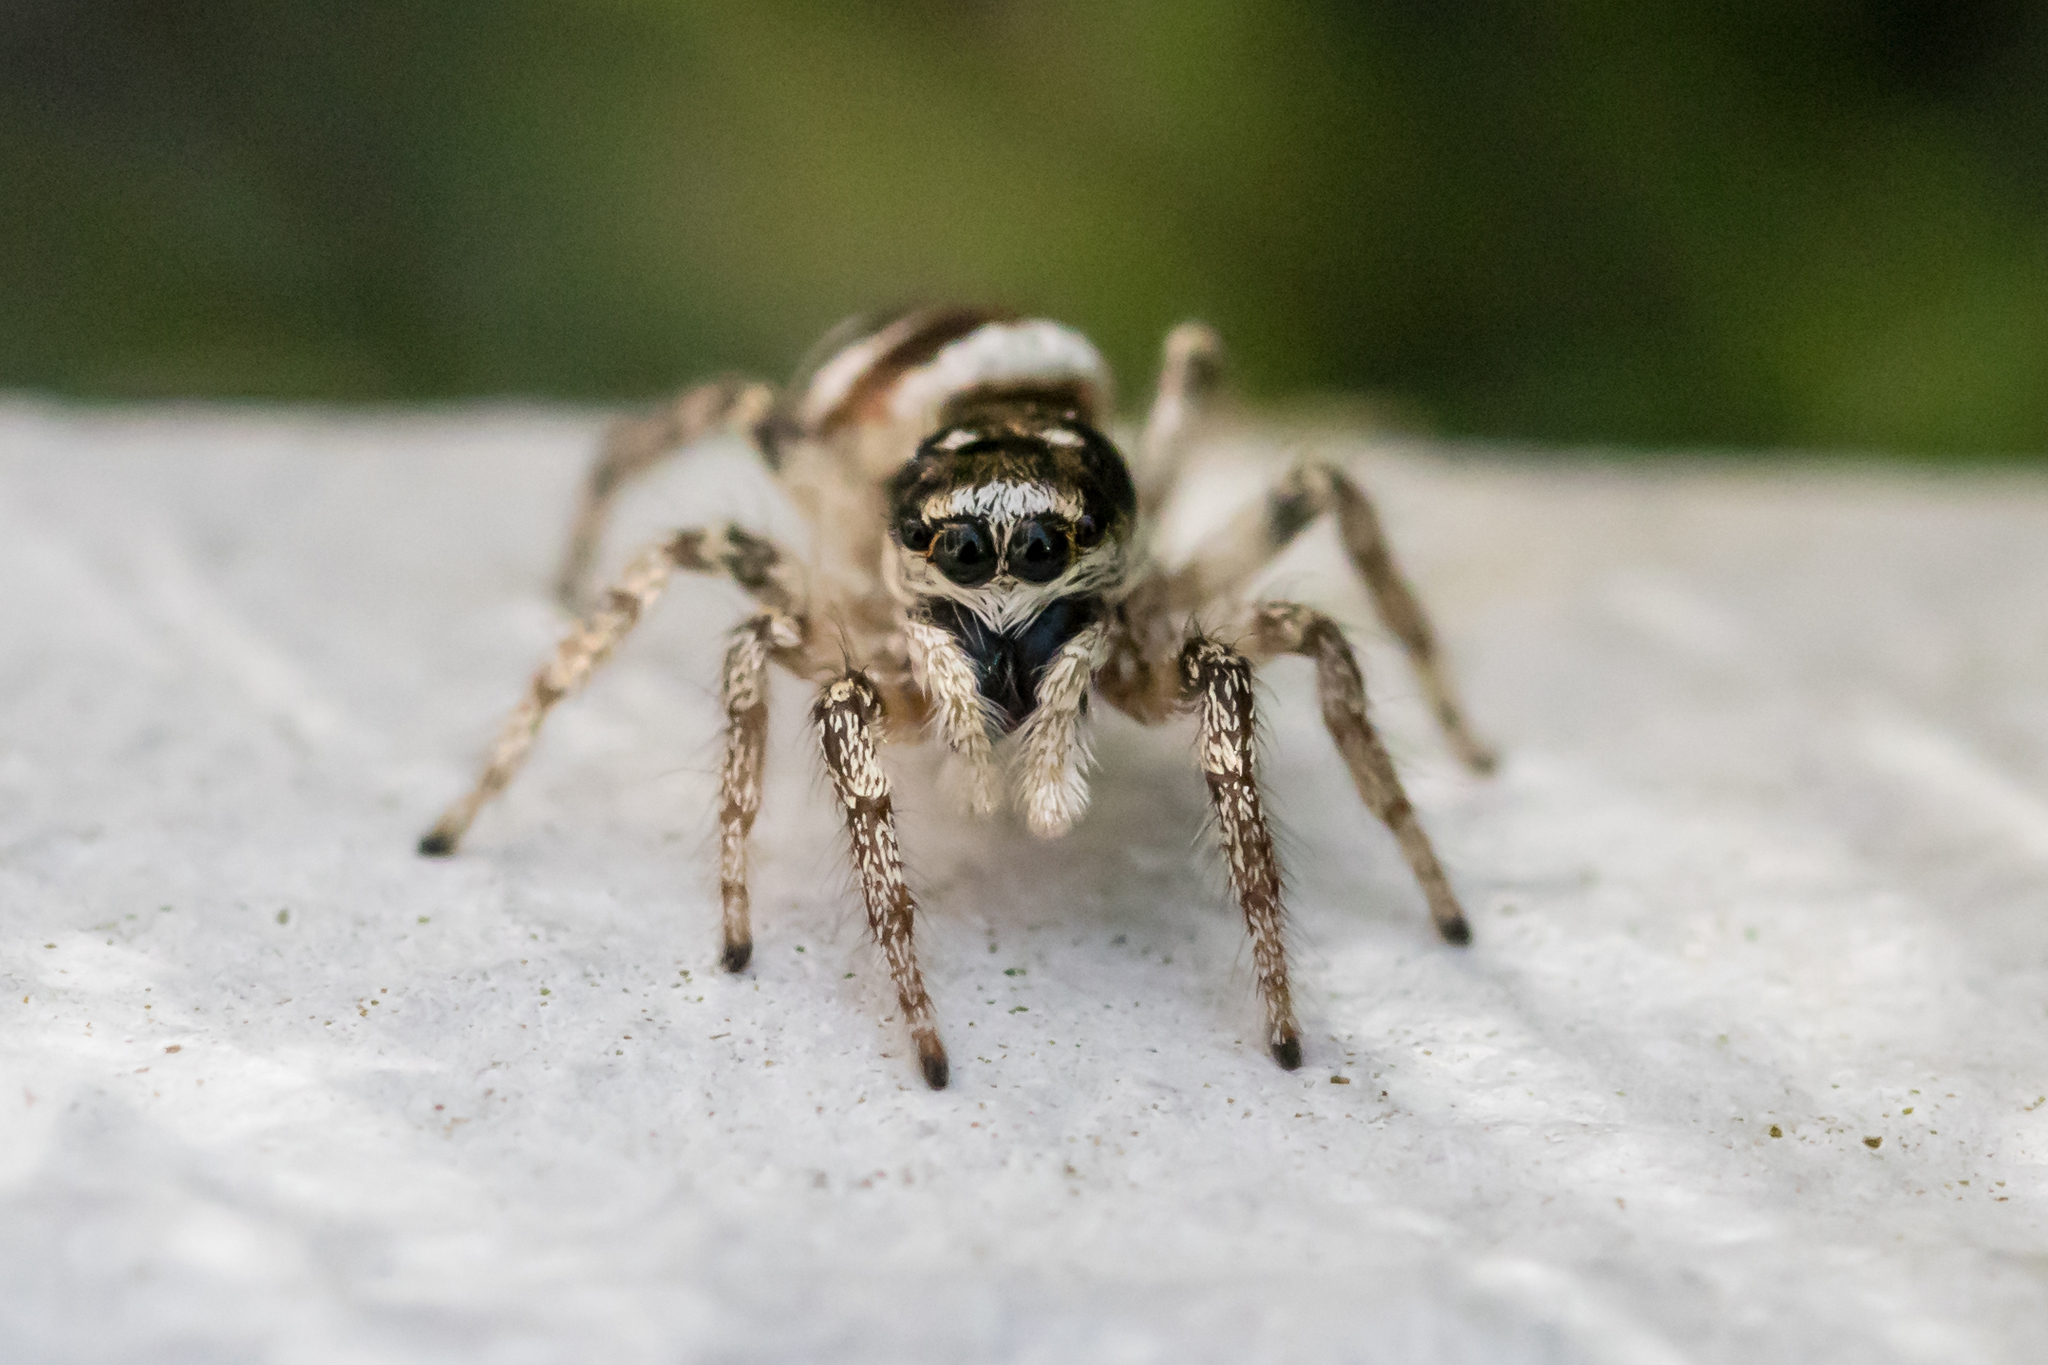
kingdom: Animalia
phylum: Arthropoda
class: Arachnida
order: Araneae
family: Salticidae
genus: Salticus
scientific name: Salticus scenicus
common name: Zebra jumper
